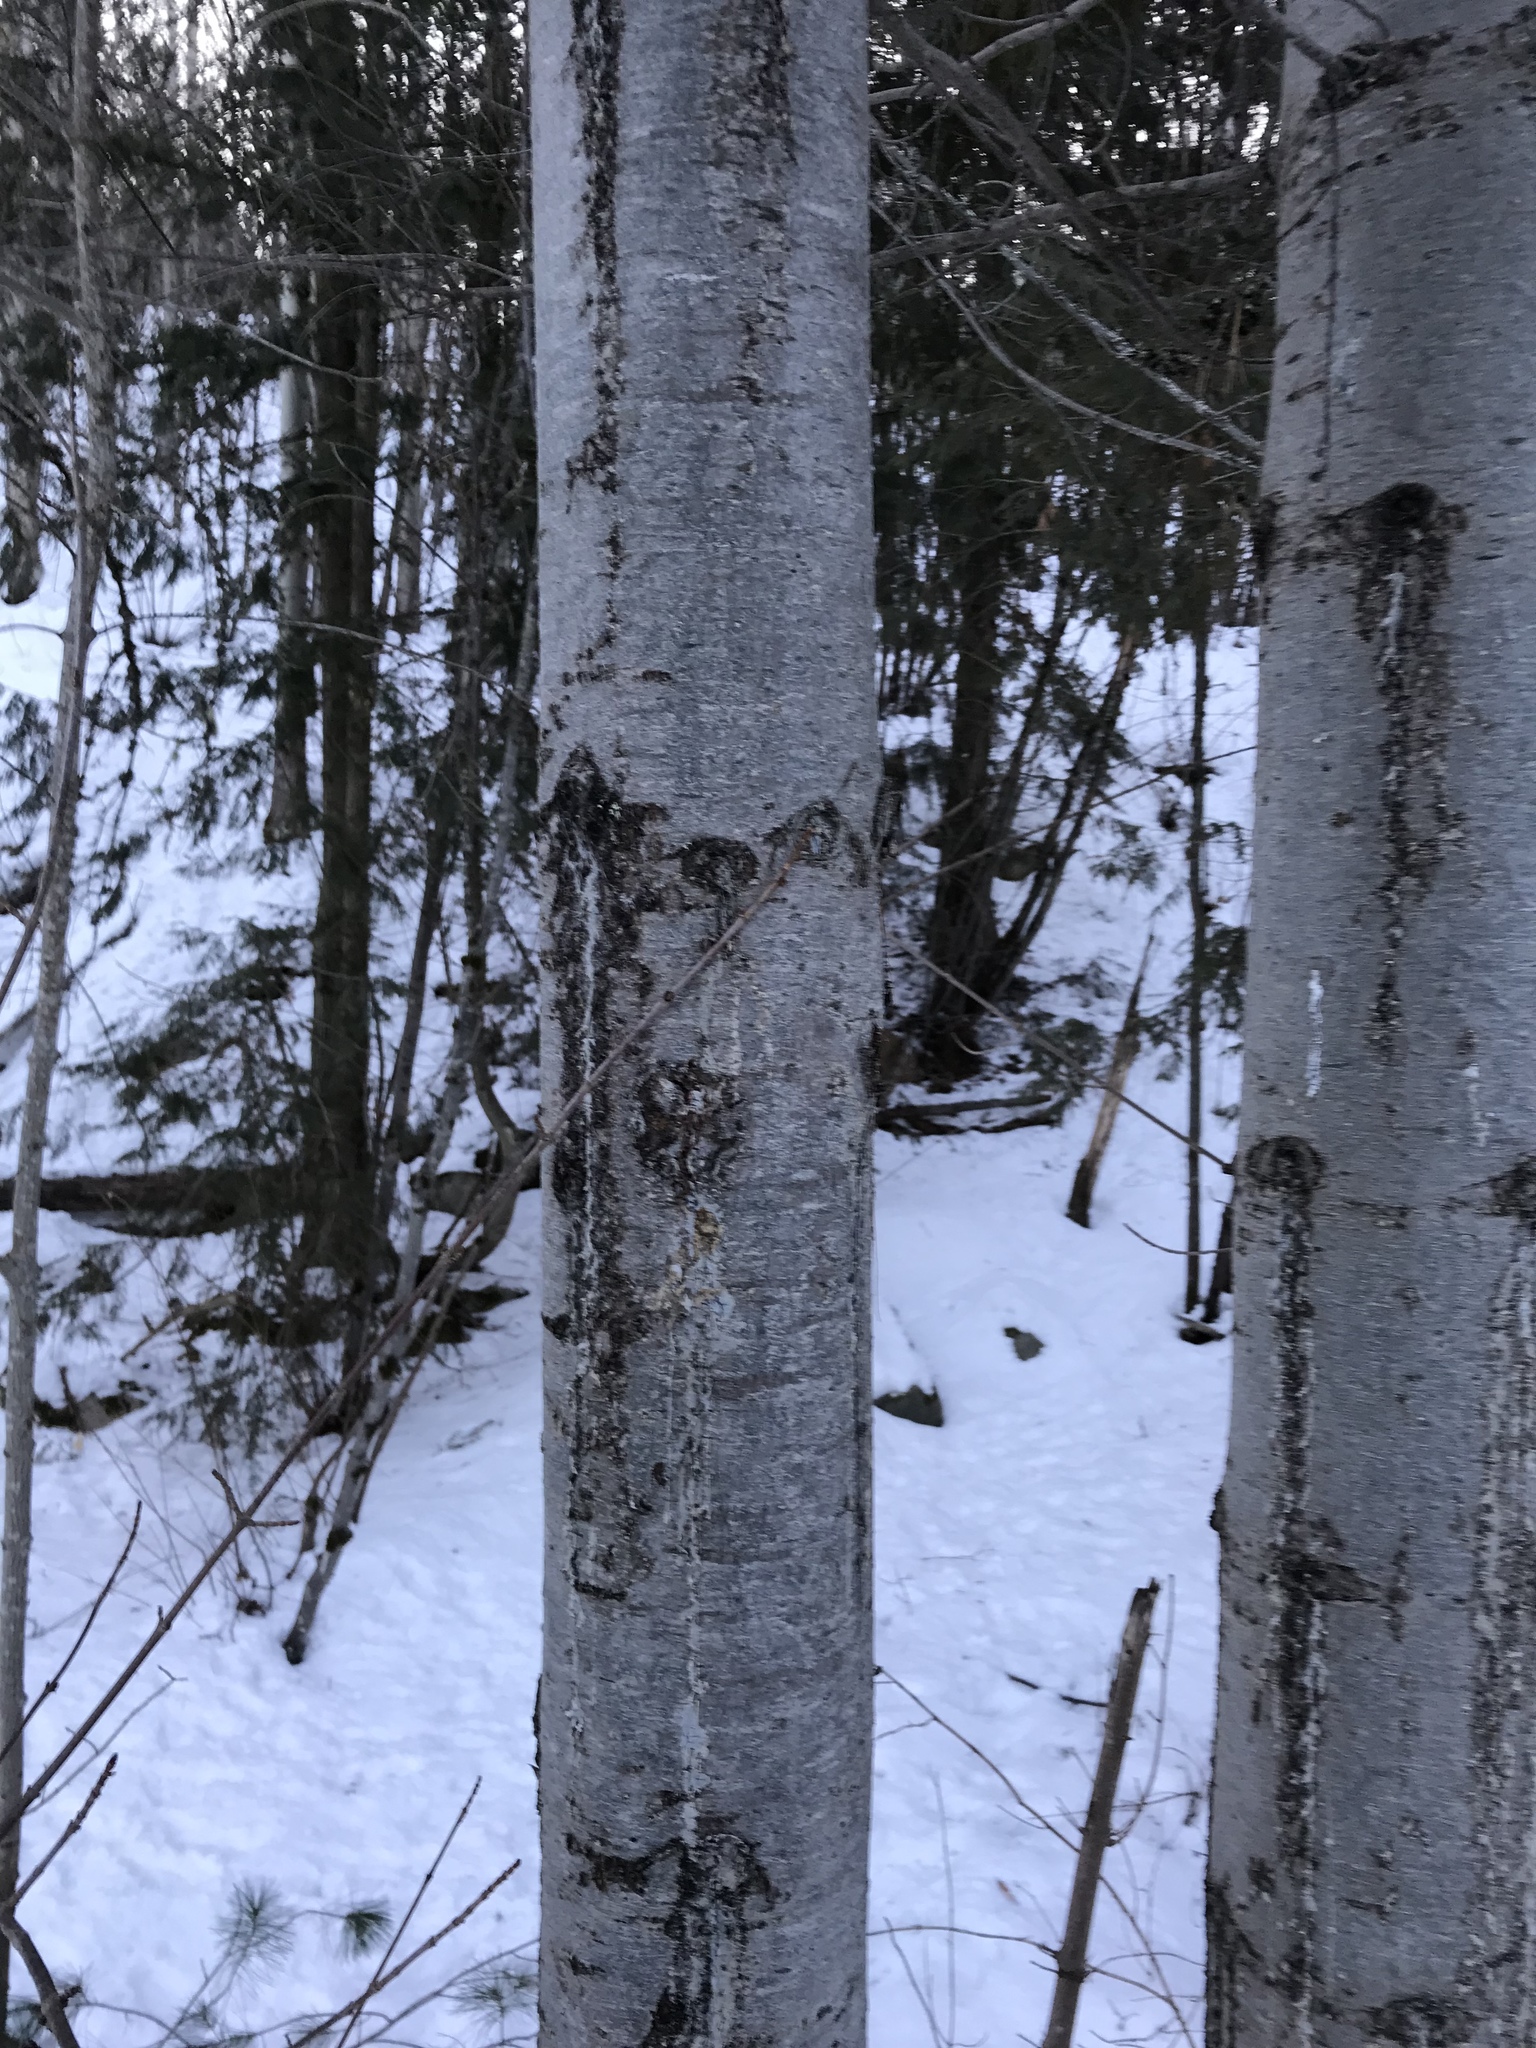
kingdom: Plantae
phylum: Tracheophyta
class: Pinopsida
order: Pinales
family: Pinaceae
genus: Pinus
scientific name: Pinus monticola
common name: Western white pine
